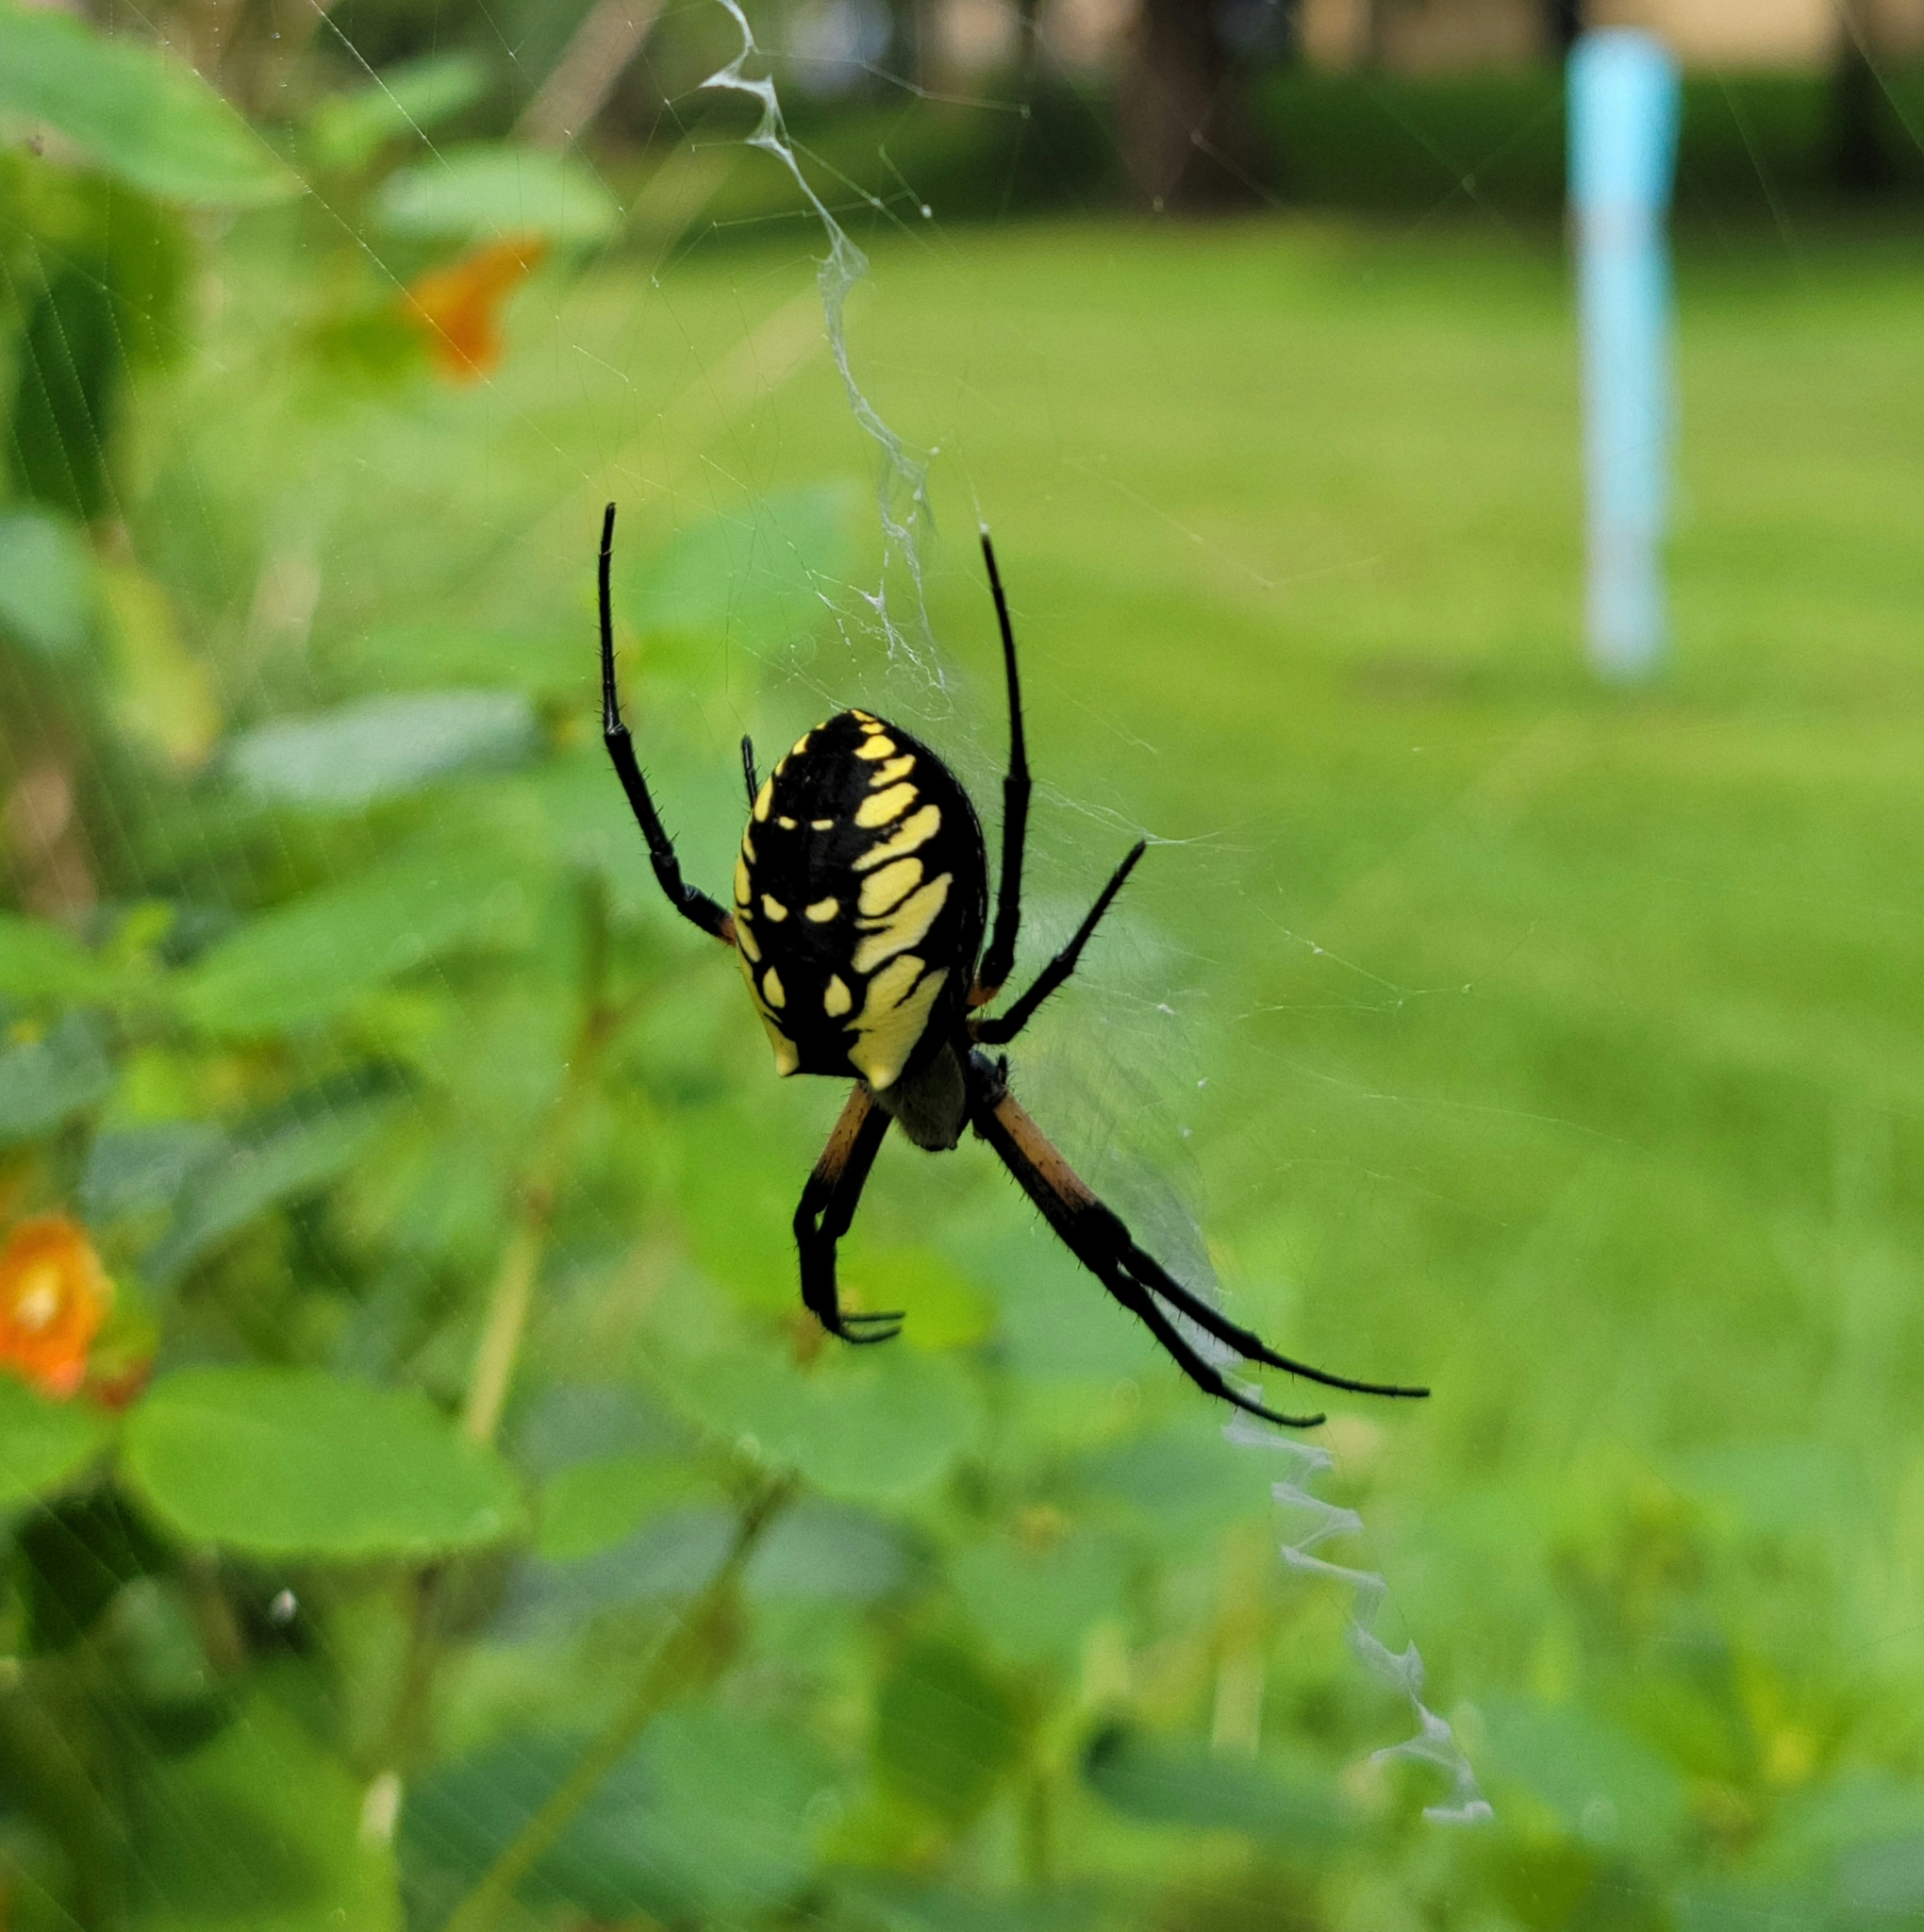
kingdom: Animalia
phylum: Arthropoda
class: Arachnida
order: Araneae
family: Araneidae
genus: Argiope
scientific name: Argiope aurantia
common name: Orb weavers
